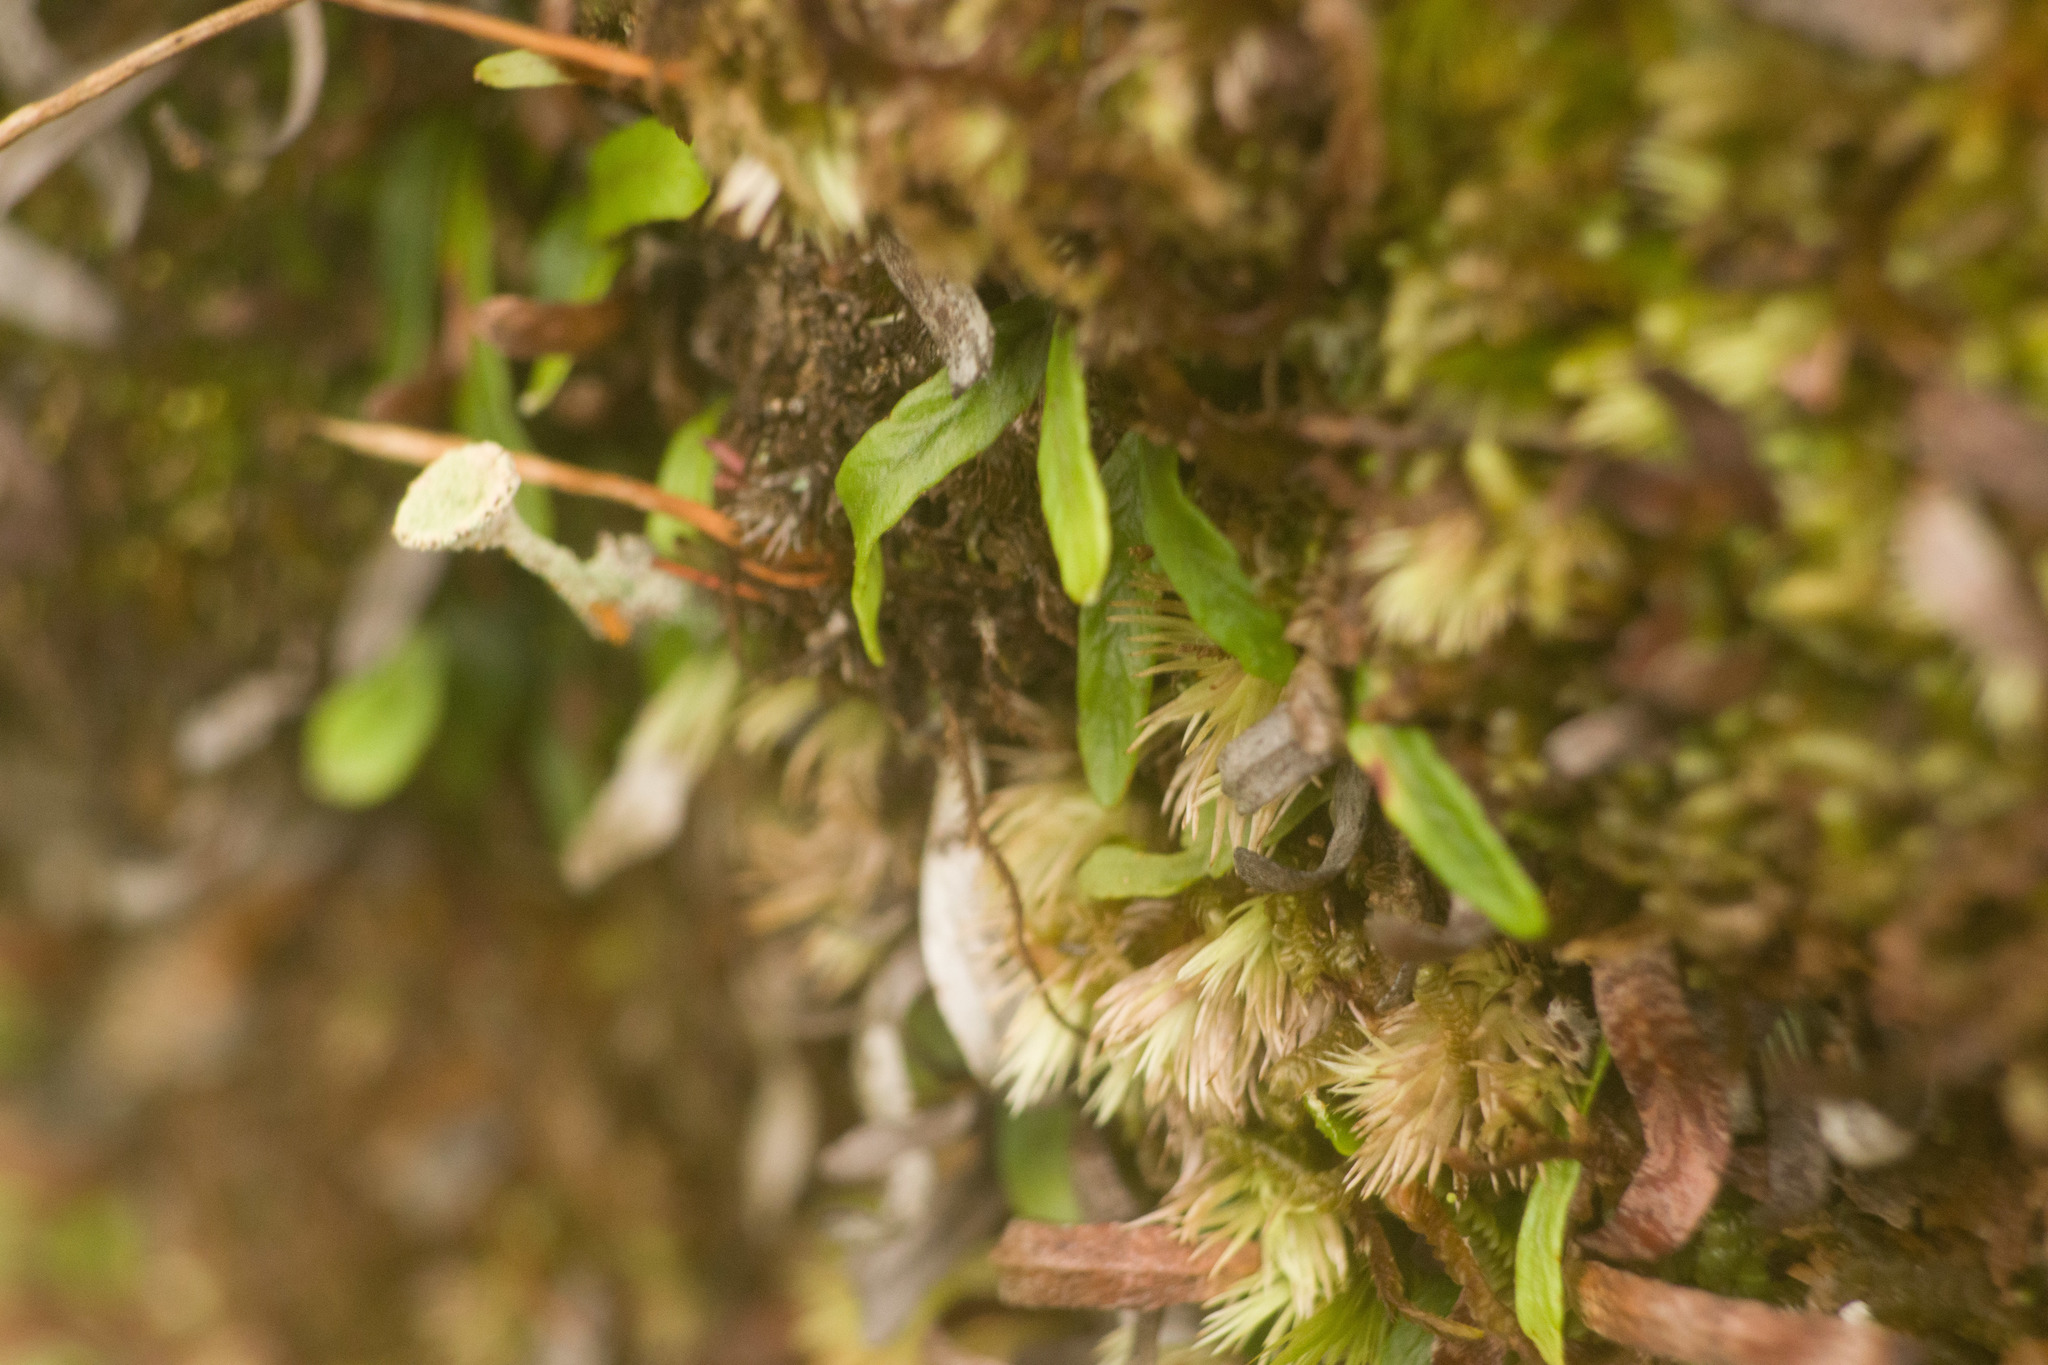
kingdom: Plantae
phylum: Tracheophyta
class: Polypodiopsida
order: Polypodiales
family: Polypodiaceae
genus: Adenophorus
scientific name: Adenophorus tenellus
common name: Kolokolo
